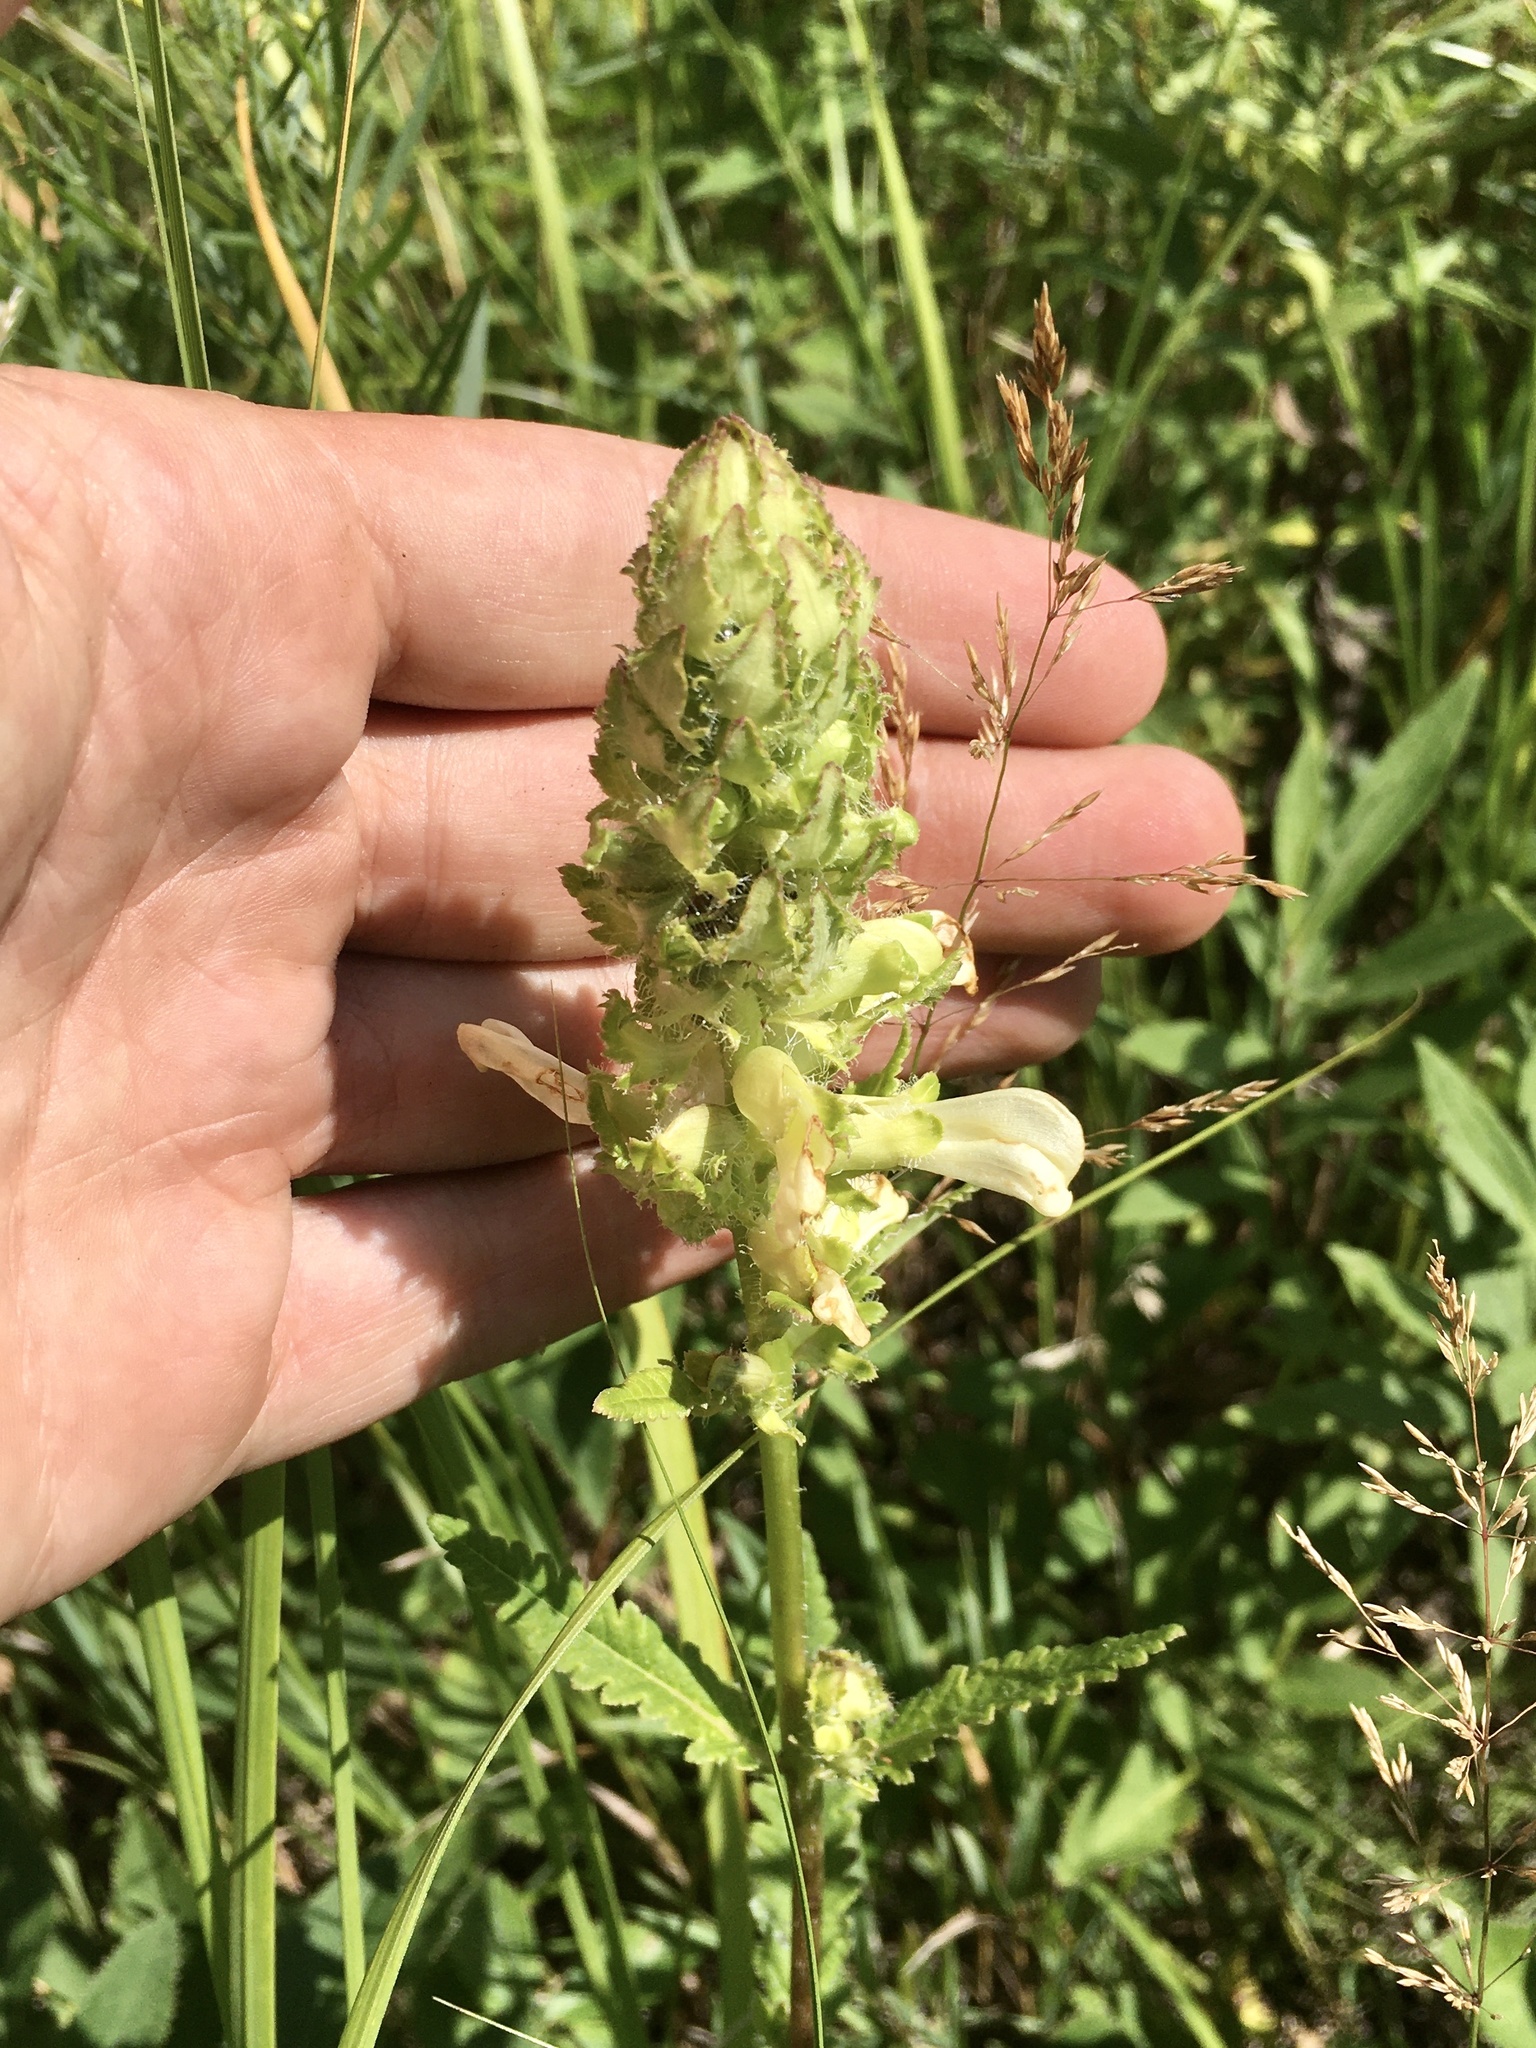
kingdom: Plantae
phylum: Tracheophyta
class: Magnoliopsida
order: Lamiales
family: Orobanchaceae
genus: Pedicularis
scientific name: Pedicularis lanceolata
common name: Swamp lousewort
